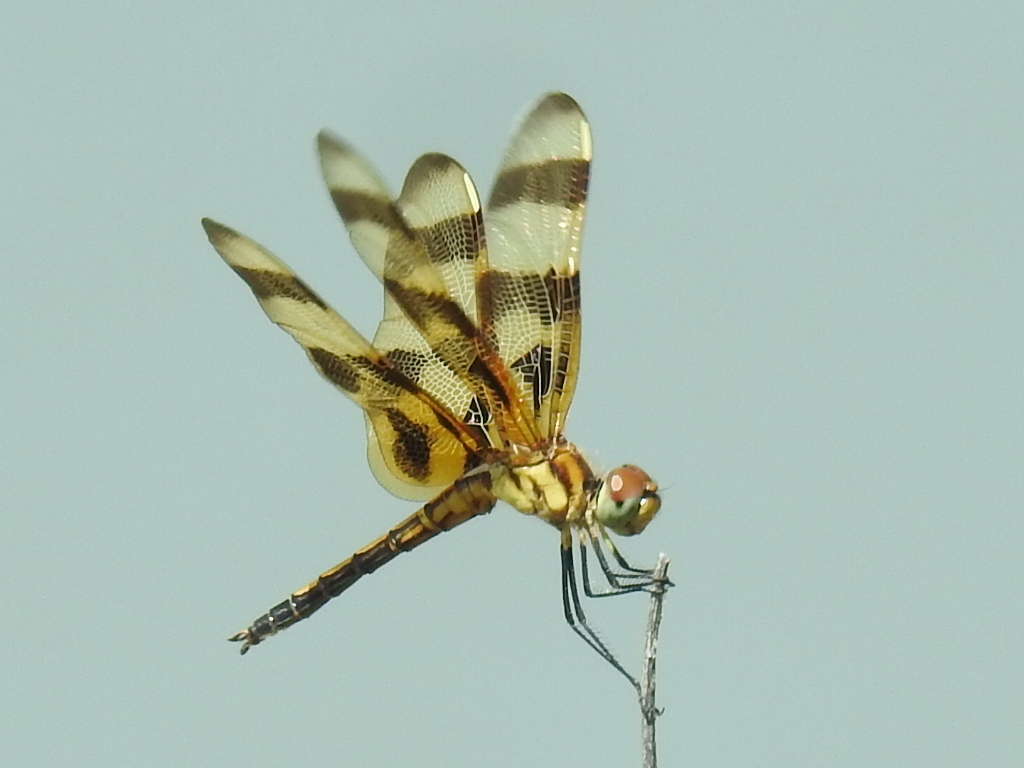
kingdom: Animalia
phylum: Arthropoda
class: Insecta
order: Odonata
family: Libellulidae
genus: Celithemis
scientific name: Celithemis eponina
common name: Halloween pennant
